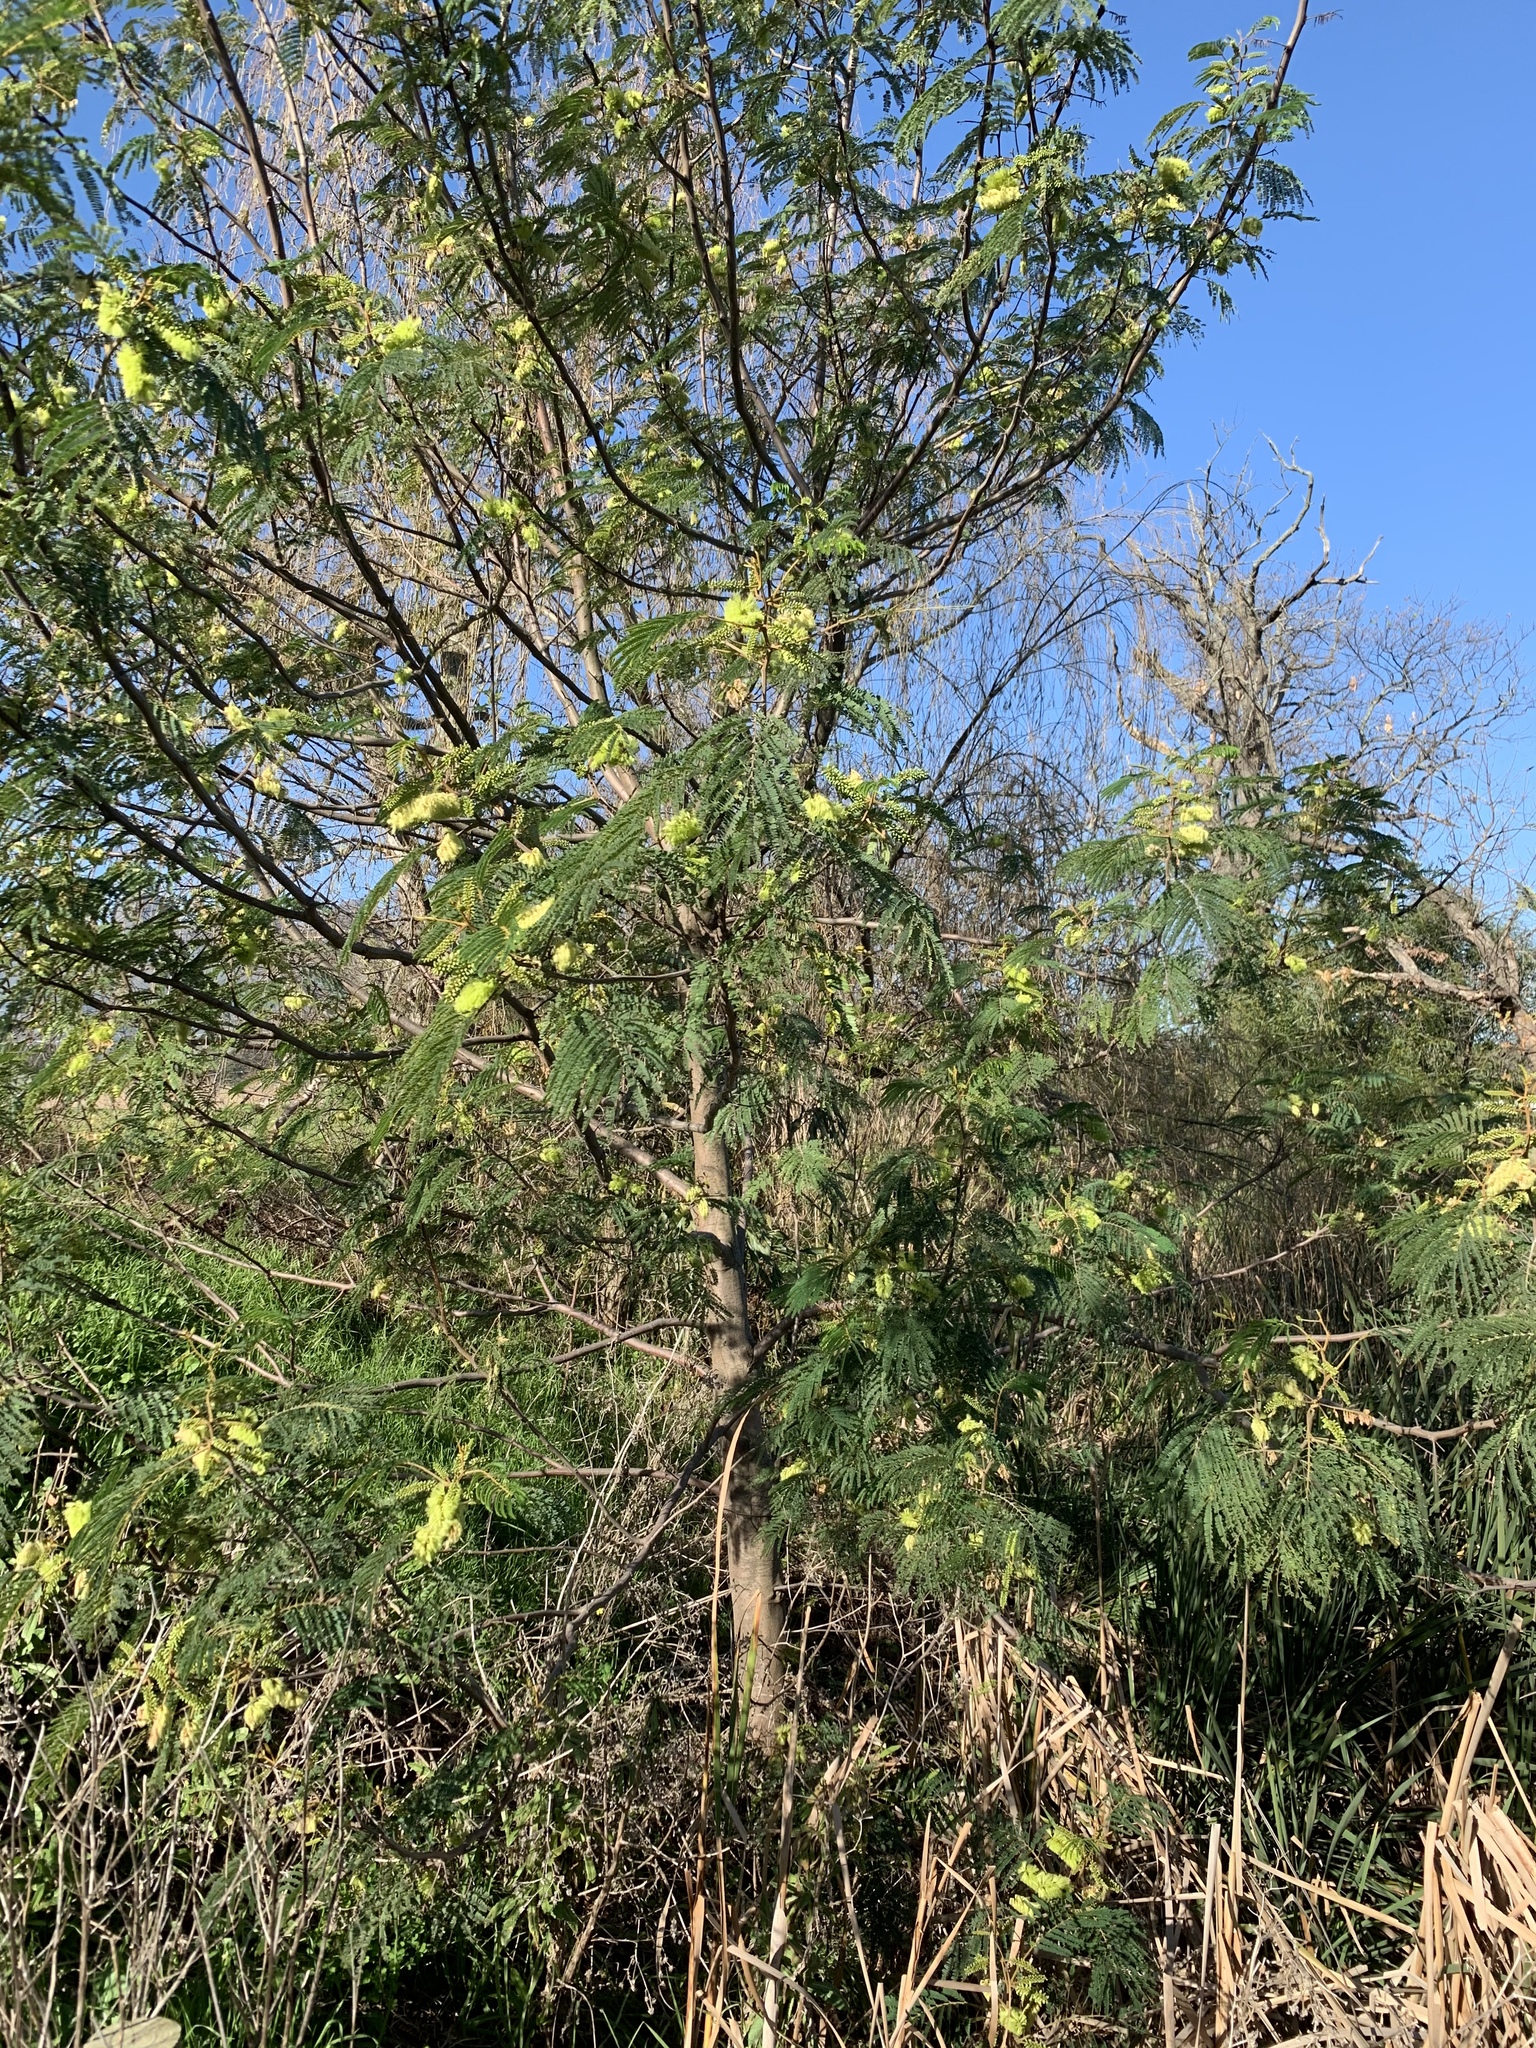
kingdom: Plantae
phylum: Tracheophyta
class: Magnoliopsida
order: Fabales
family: Fabaceae
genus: Paraserianthes
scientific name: Paraserianthes lophantha
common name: Plume albizia
